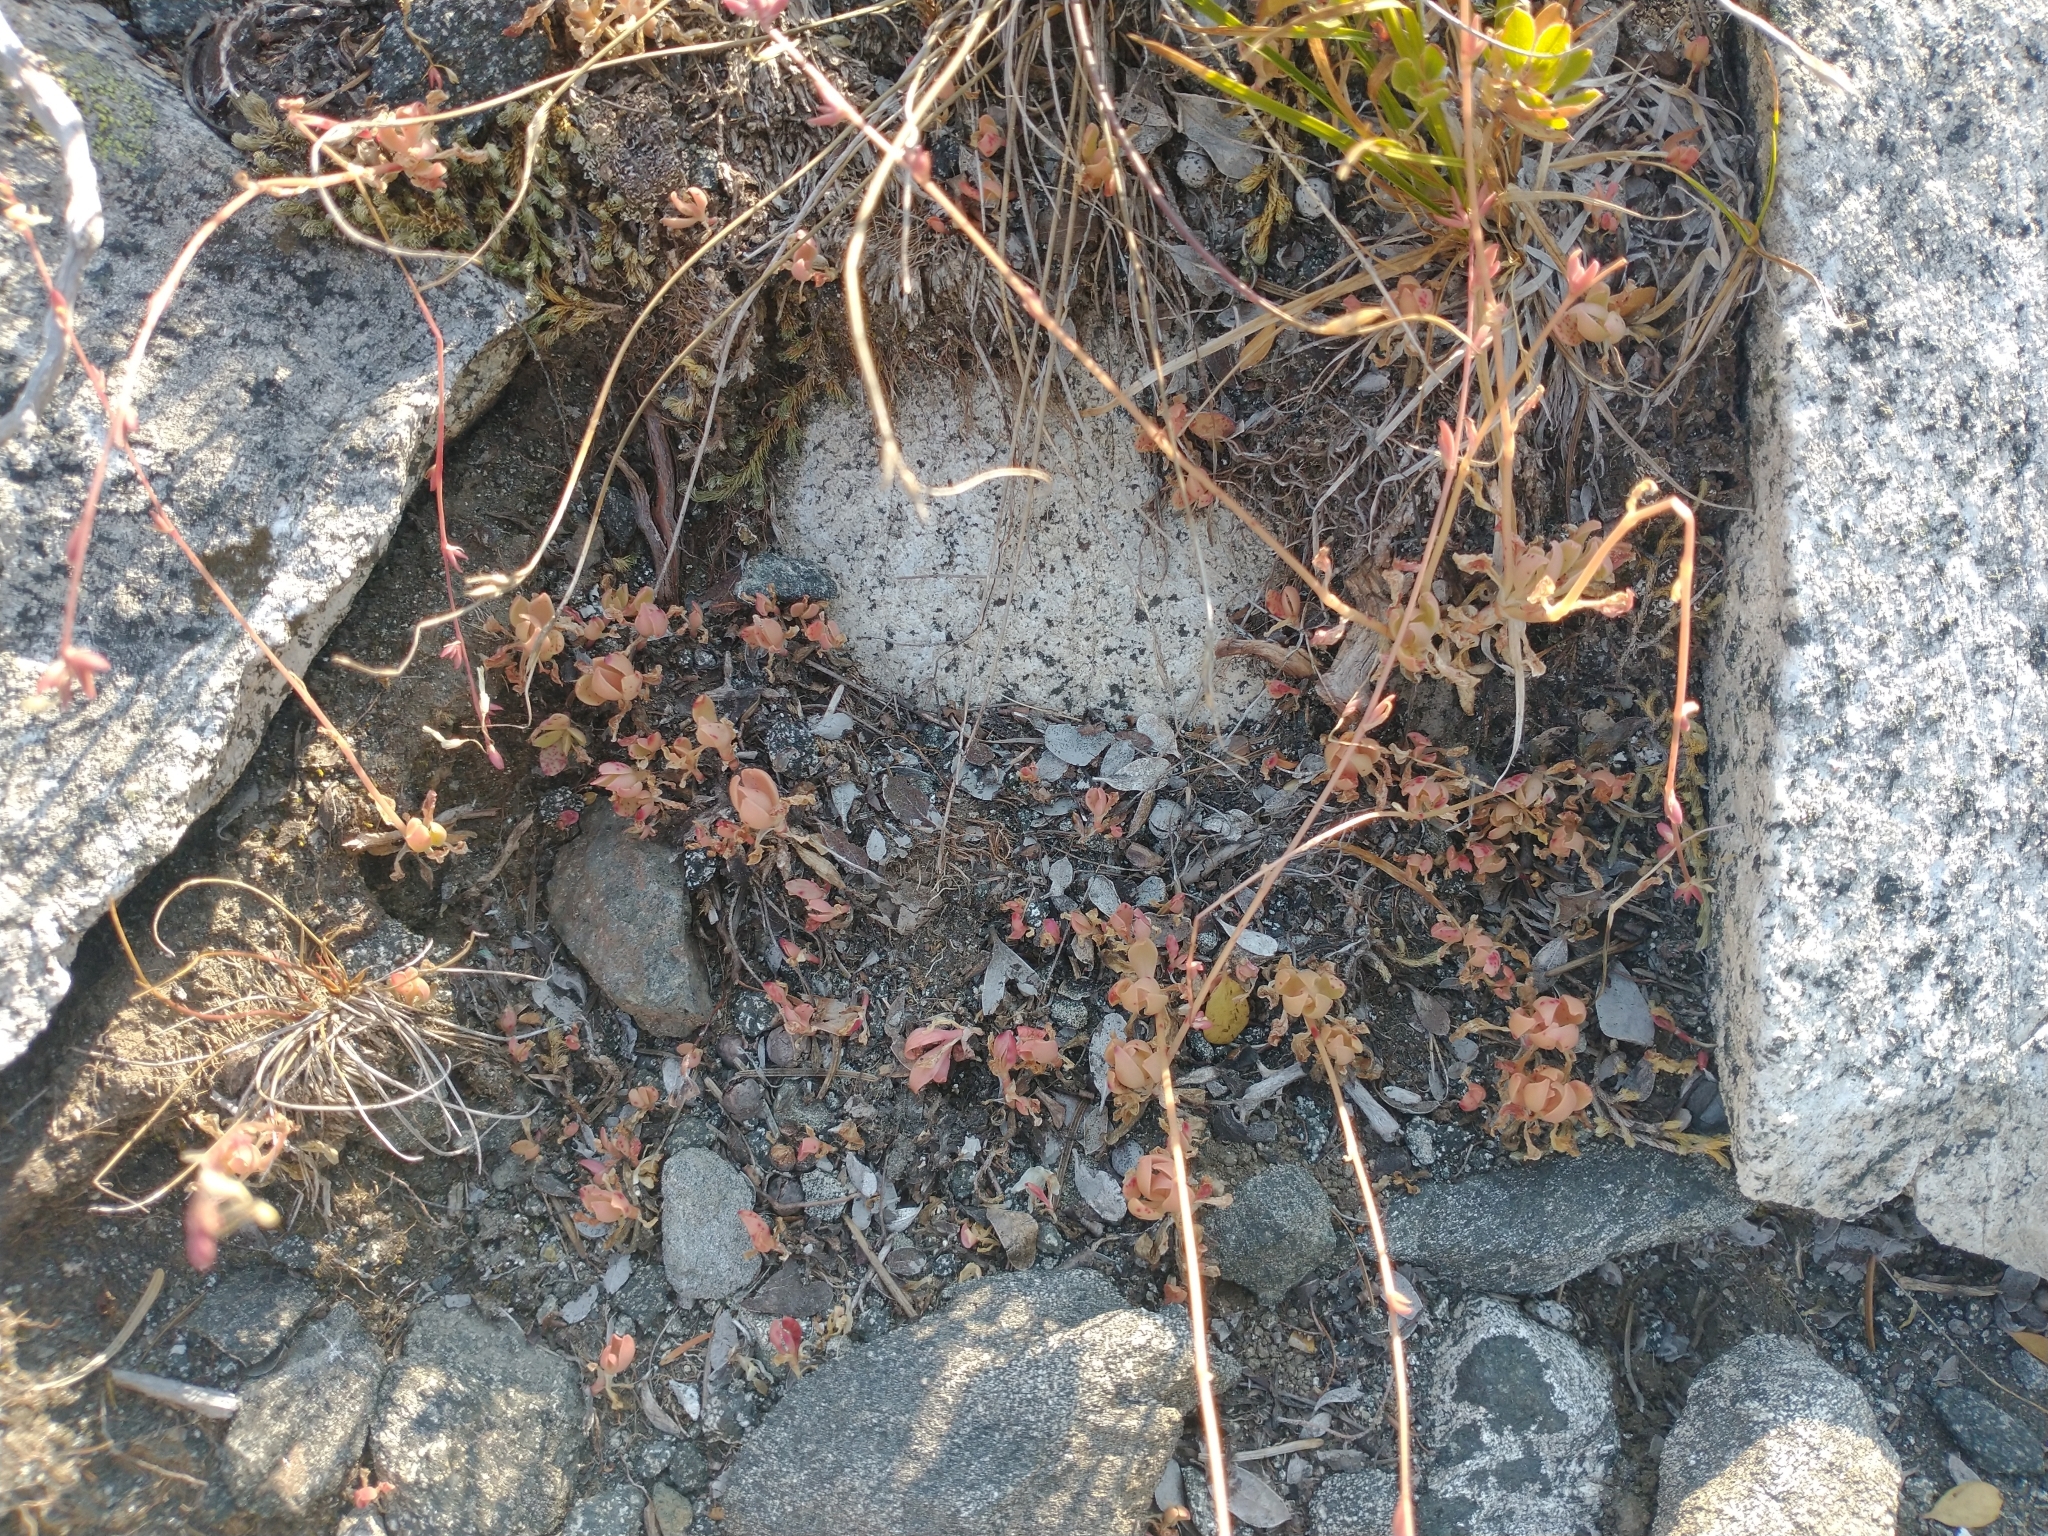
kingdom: Plantae
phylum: Tracheophyta
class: Magnoliopsida
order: Caryophyllales
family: Montiaceae
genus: Montia
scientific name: Montia parvifolia
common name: Small-leaved blinks
